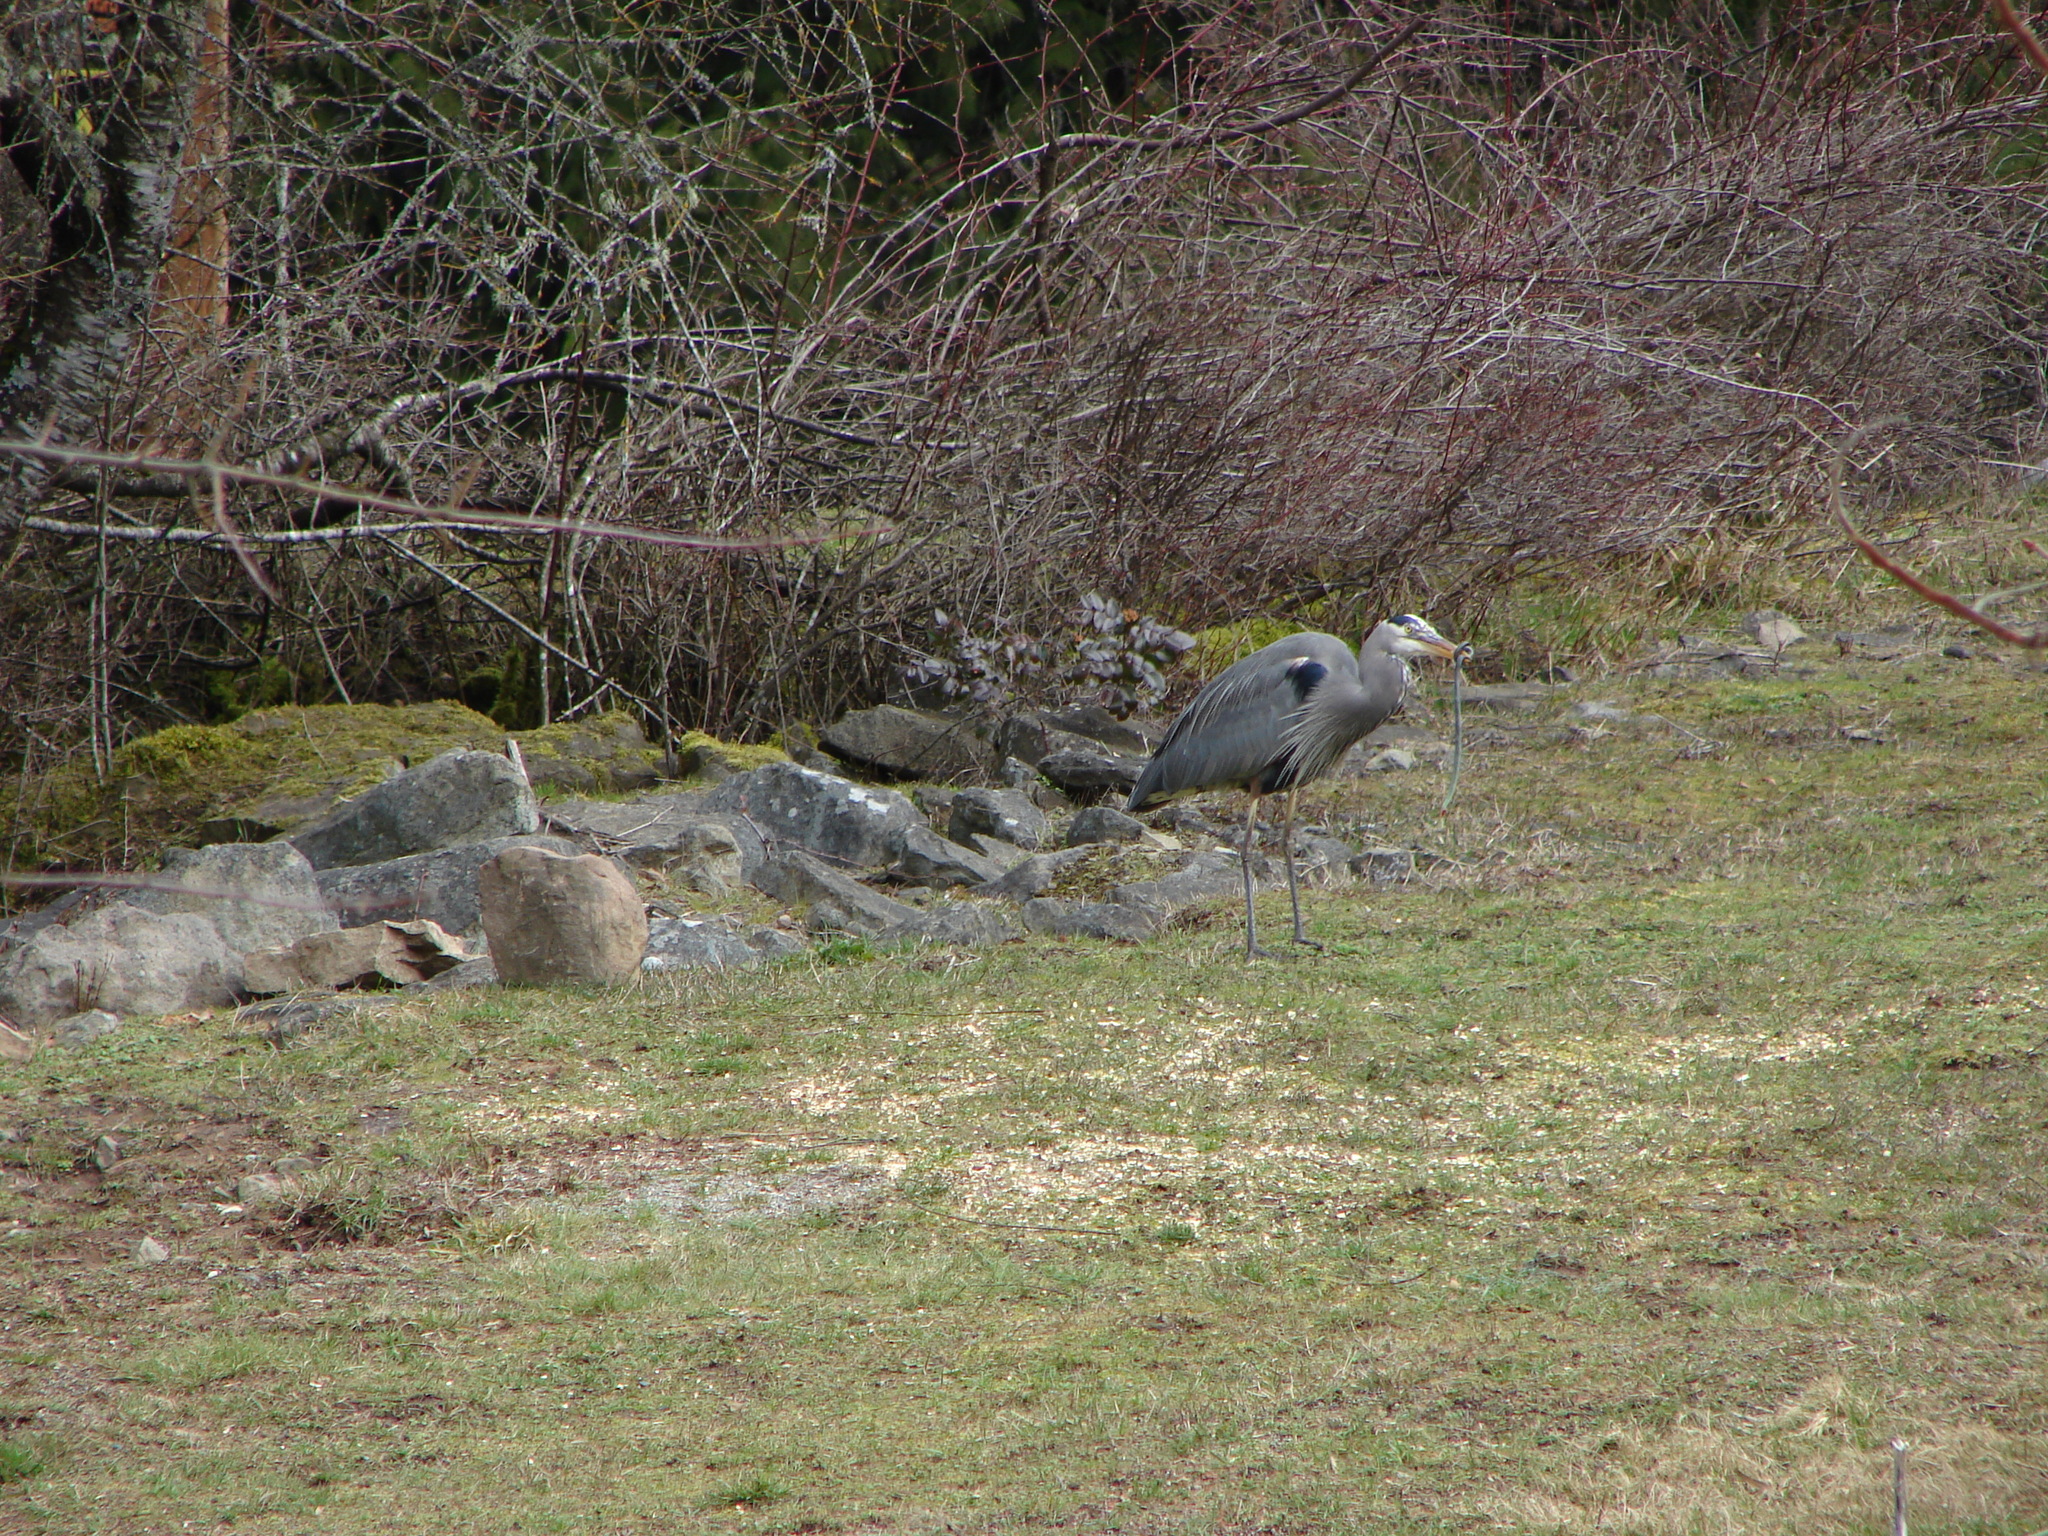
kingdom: Animalia
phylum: Chordata
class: Squamata
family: Colubridae
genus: Thamnophis
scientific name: Thamnophis sirtalis
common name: Common garter snake
